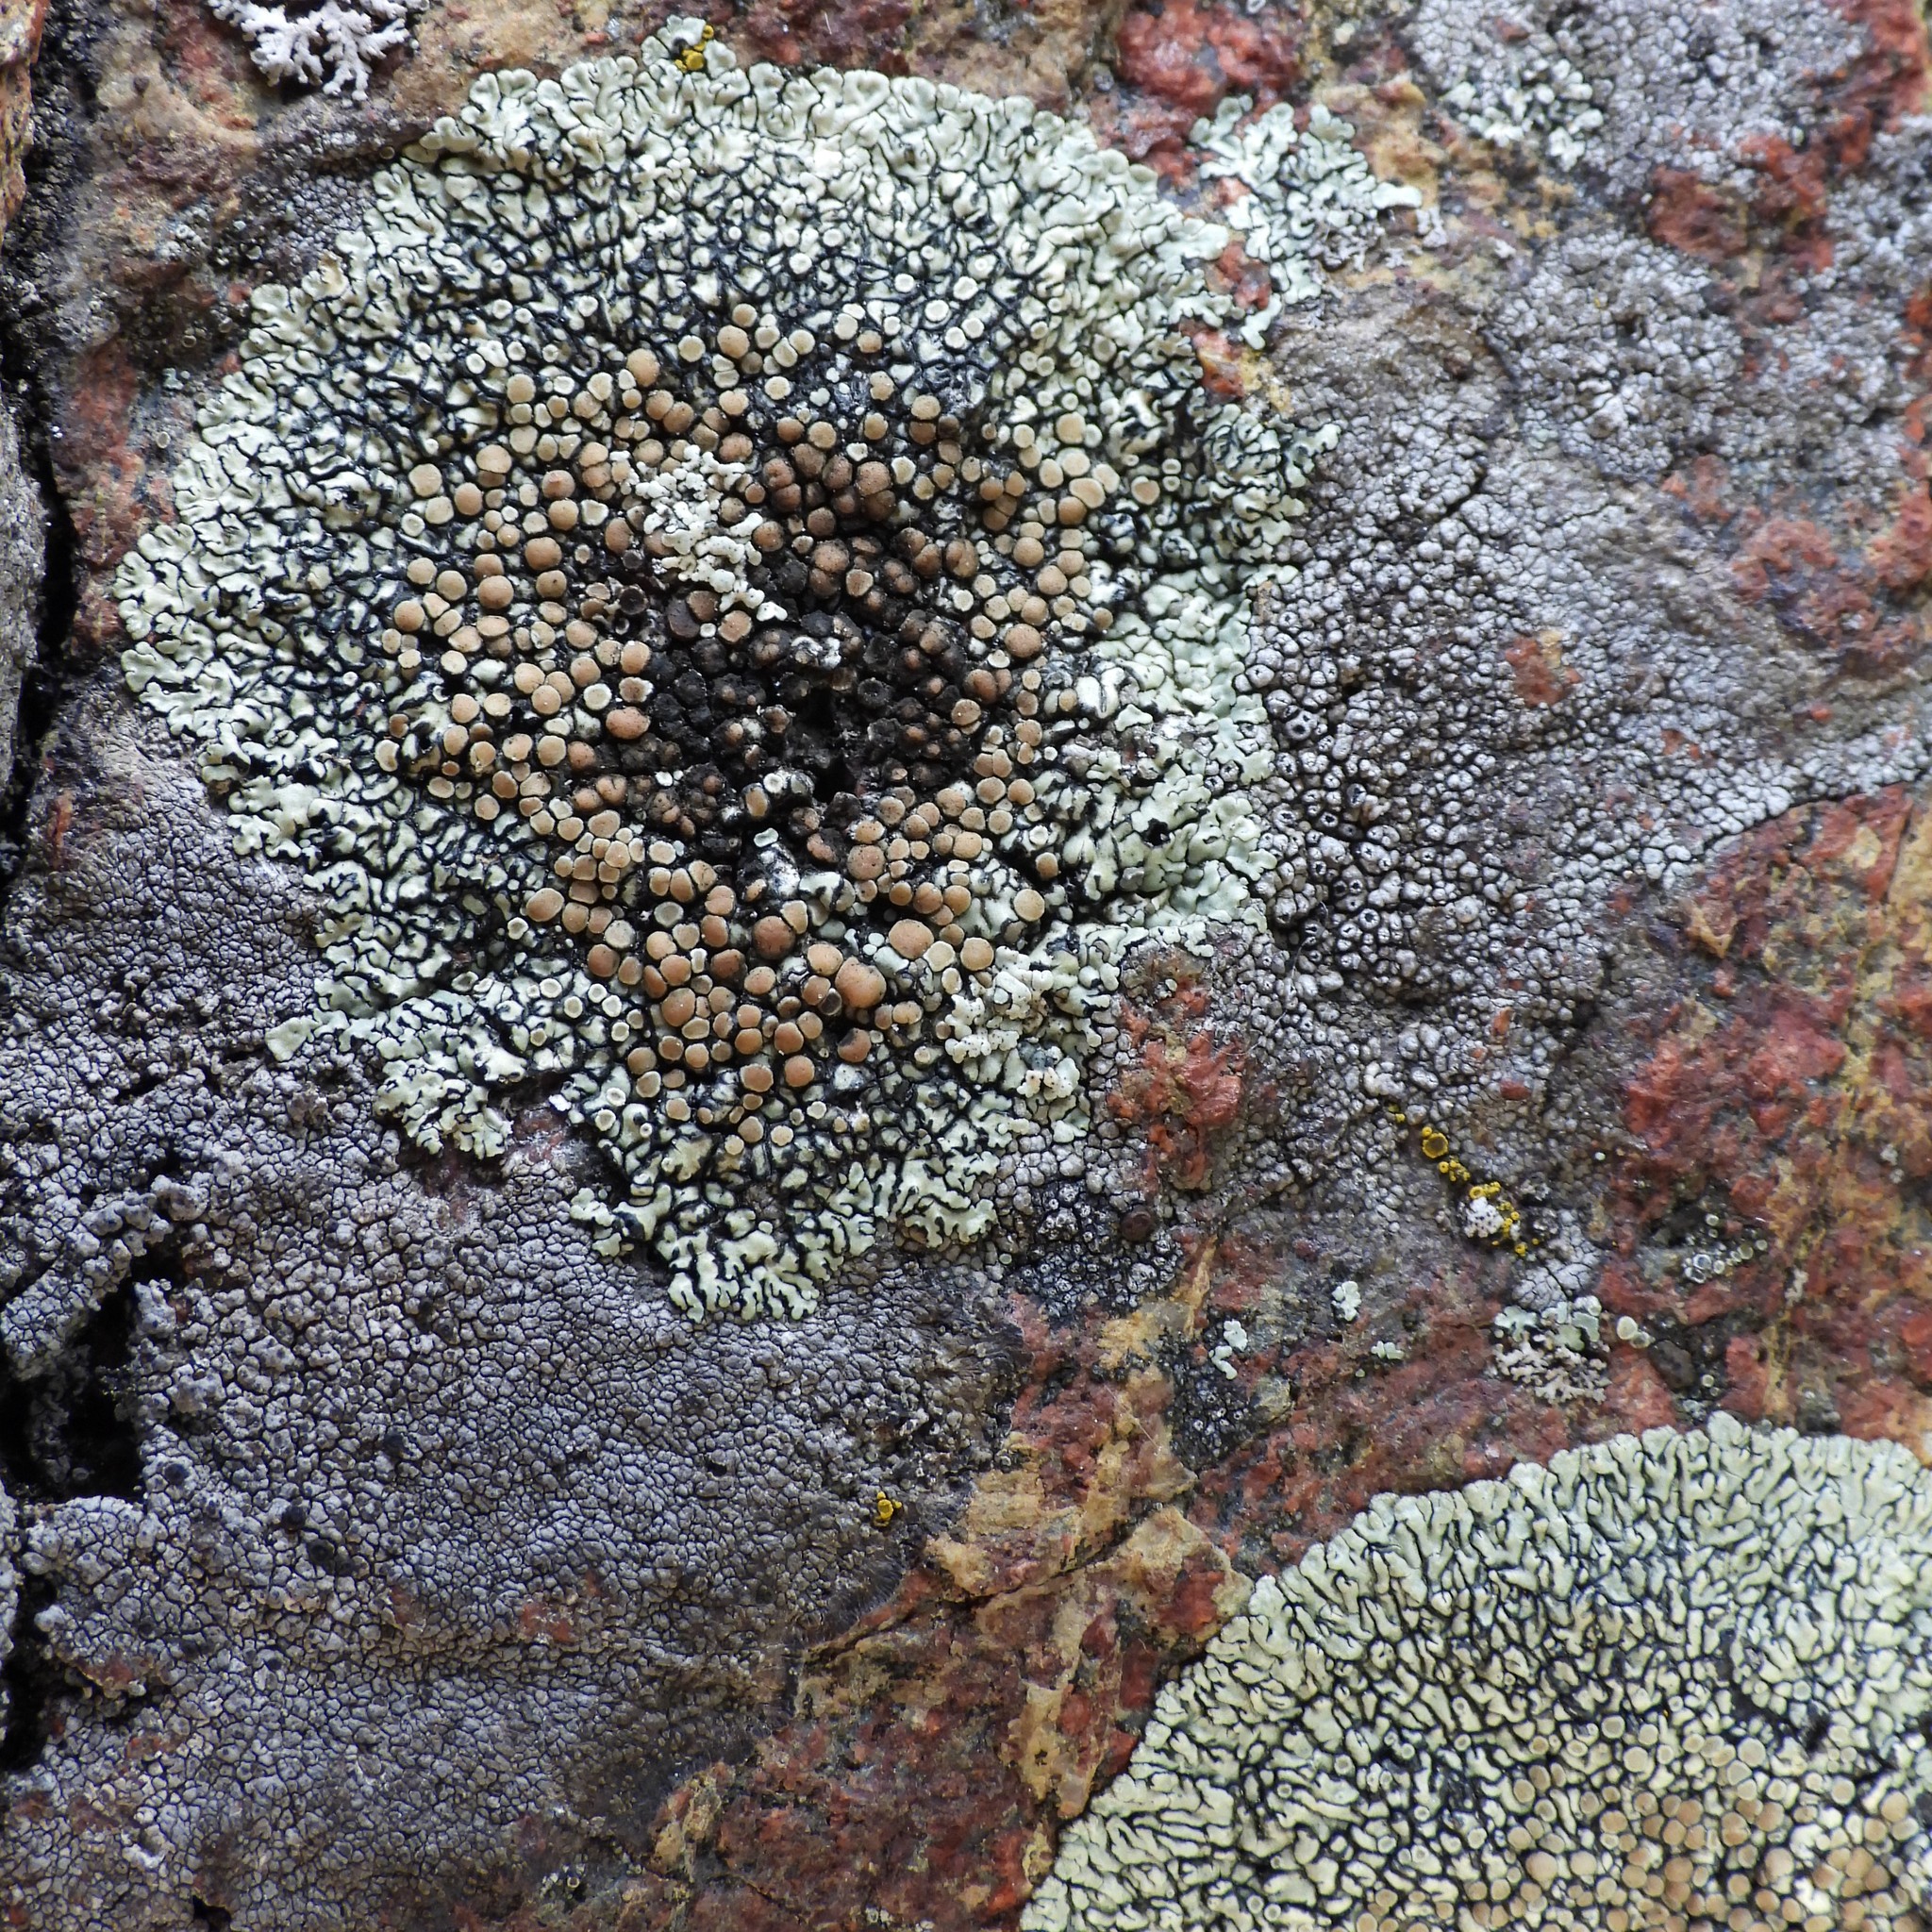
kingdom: Fungi
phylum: Ascomycota
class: Lecanoromycetes
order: Lecanorales
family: Lecanoraceae
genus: Protoparmeliopsis
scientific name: Protoparmeliopsis muralis
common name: Stonewall rim lichen
